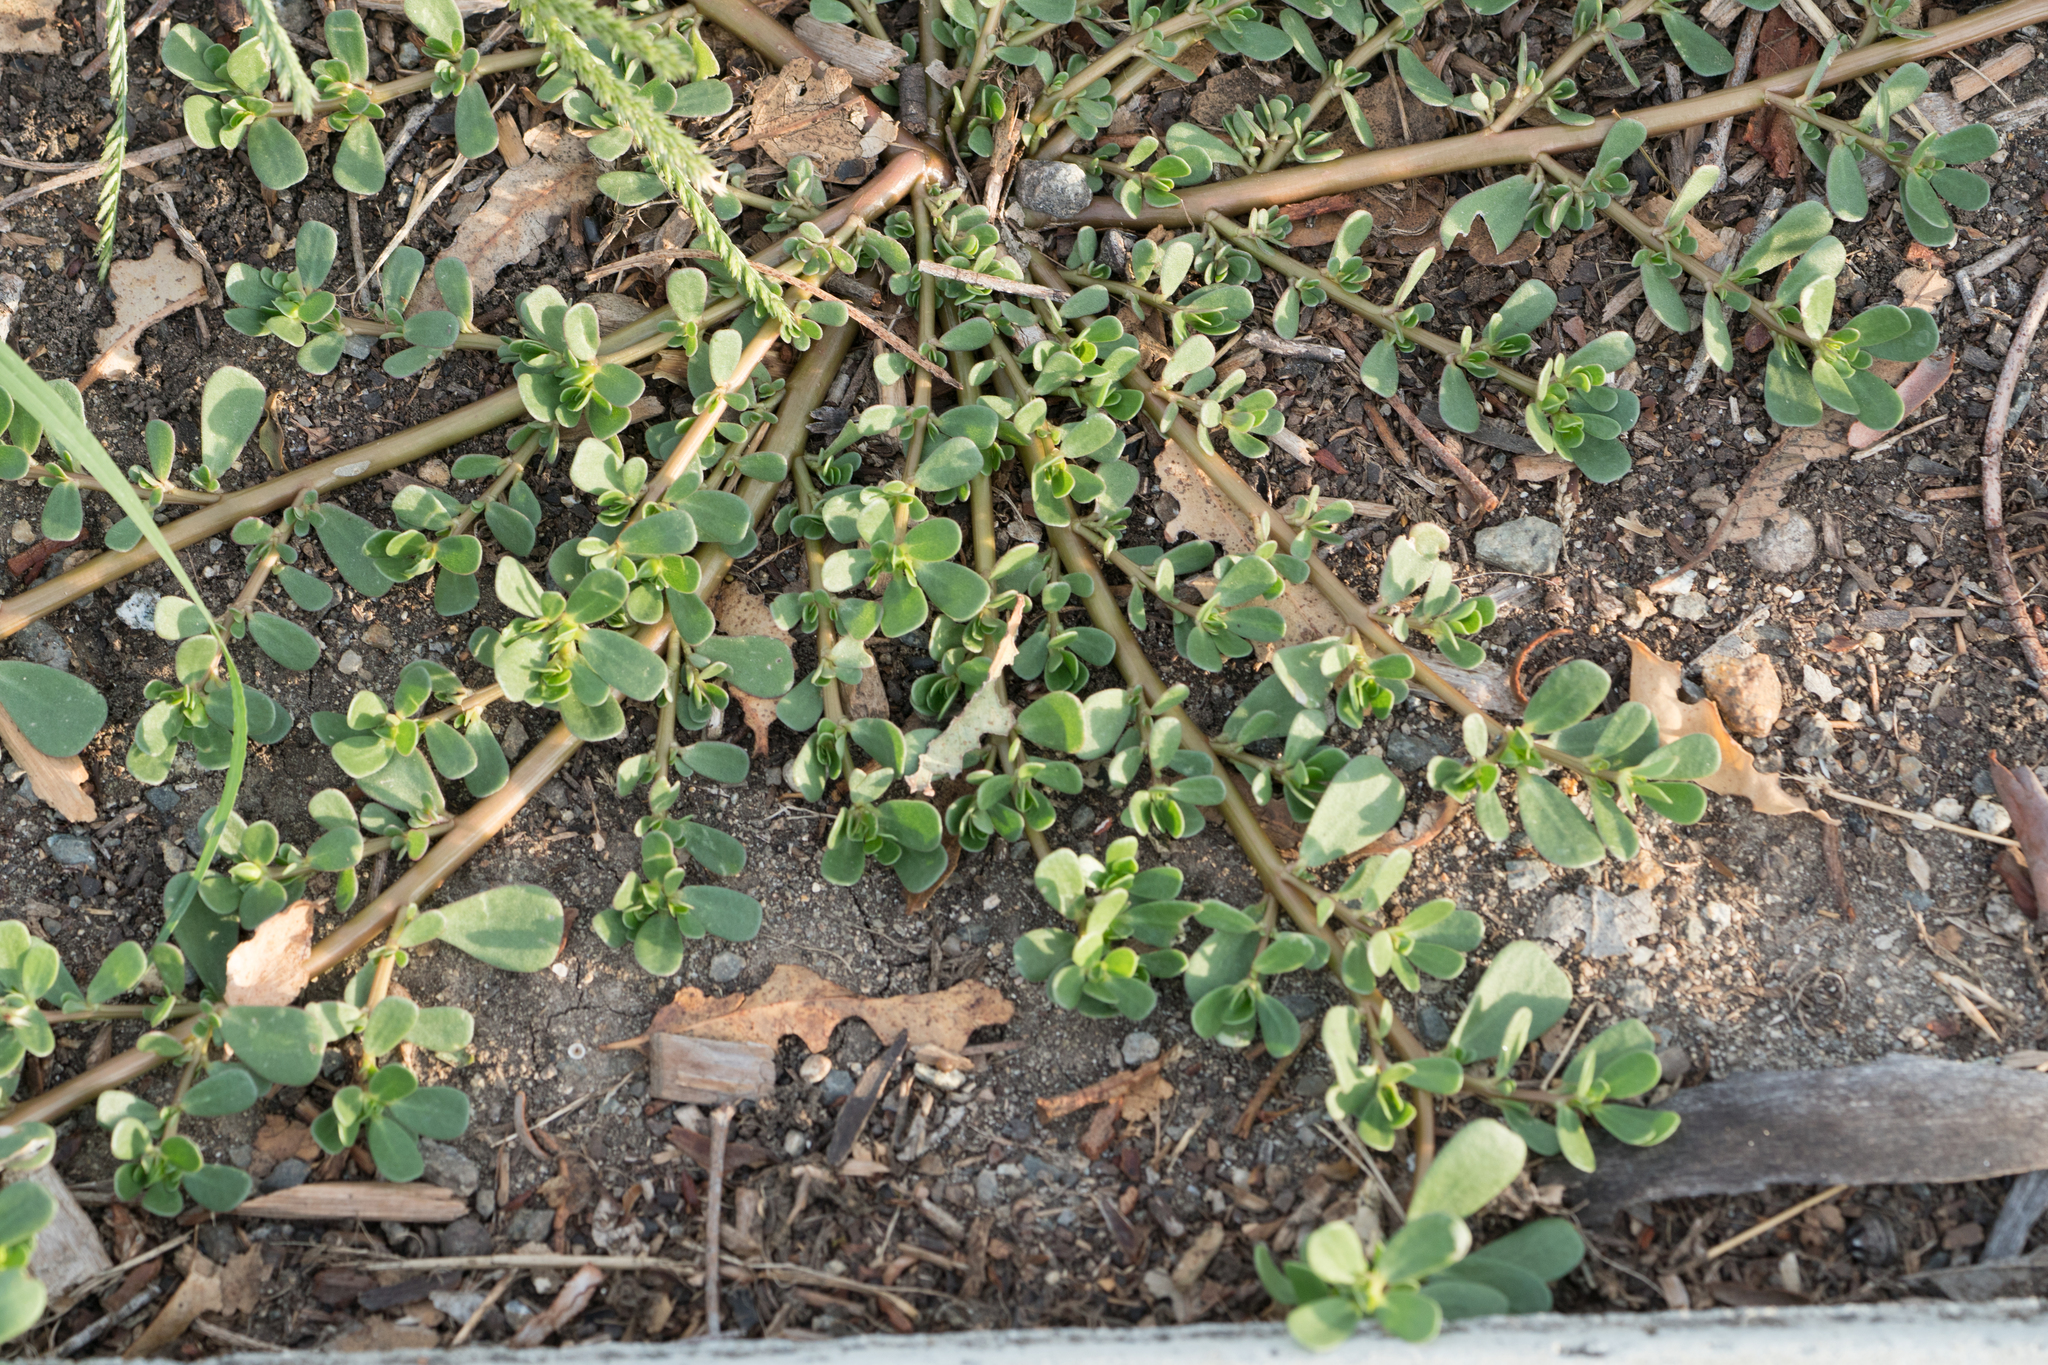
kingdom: Plantae
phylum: Tracheophyta
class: Magnoliopsida
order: Caryophyllales
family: Portulacaceae
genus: Portulaca
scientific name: Portulaca oleracea
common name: Common purslane
